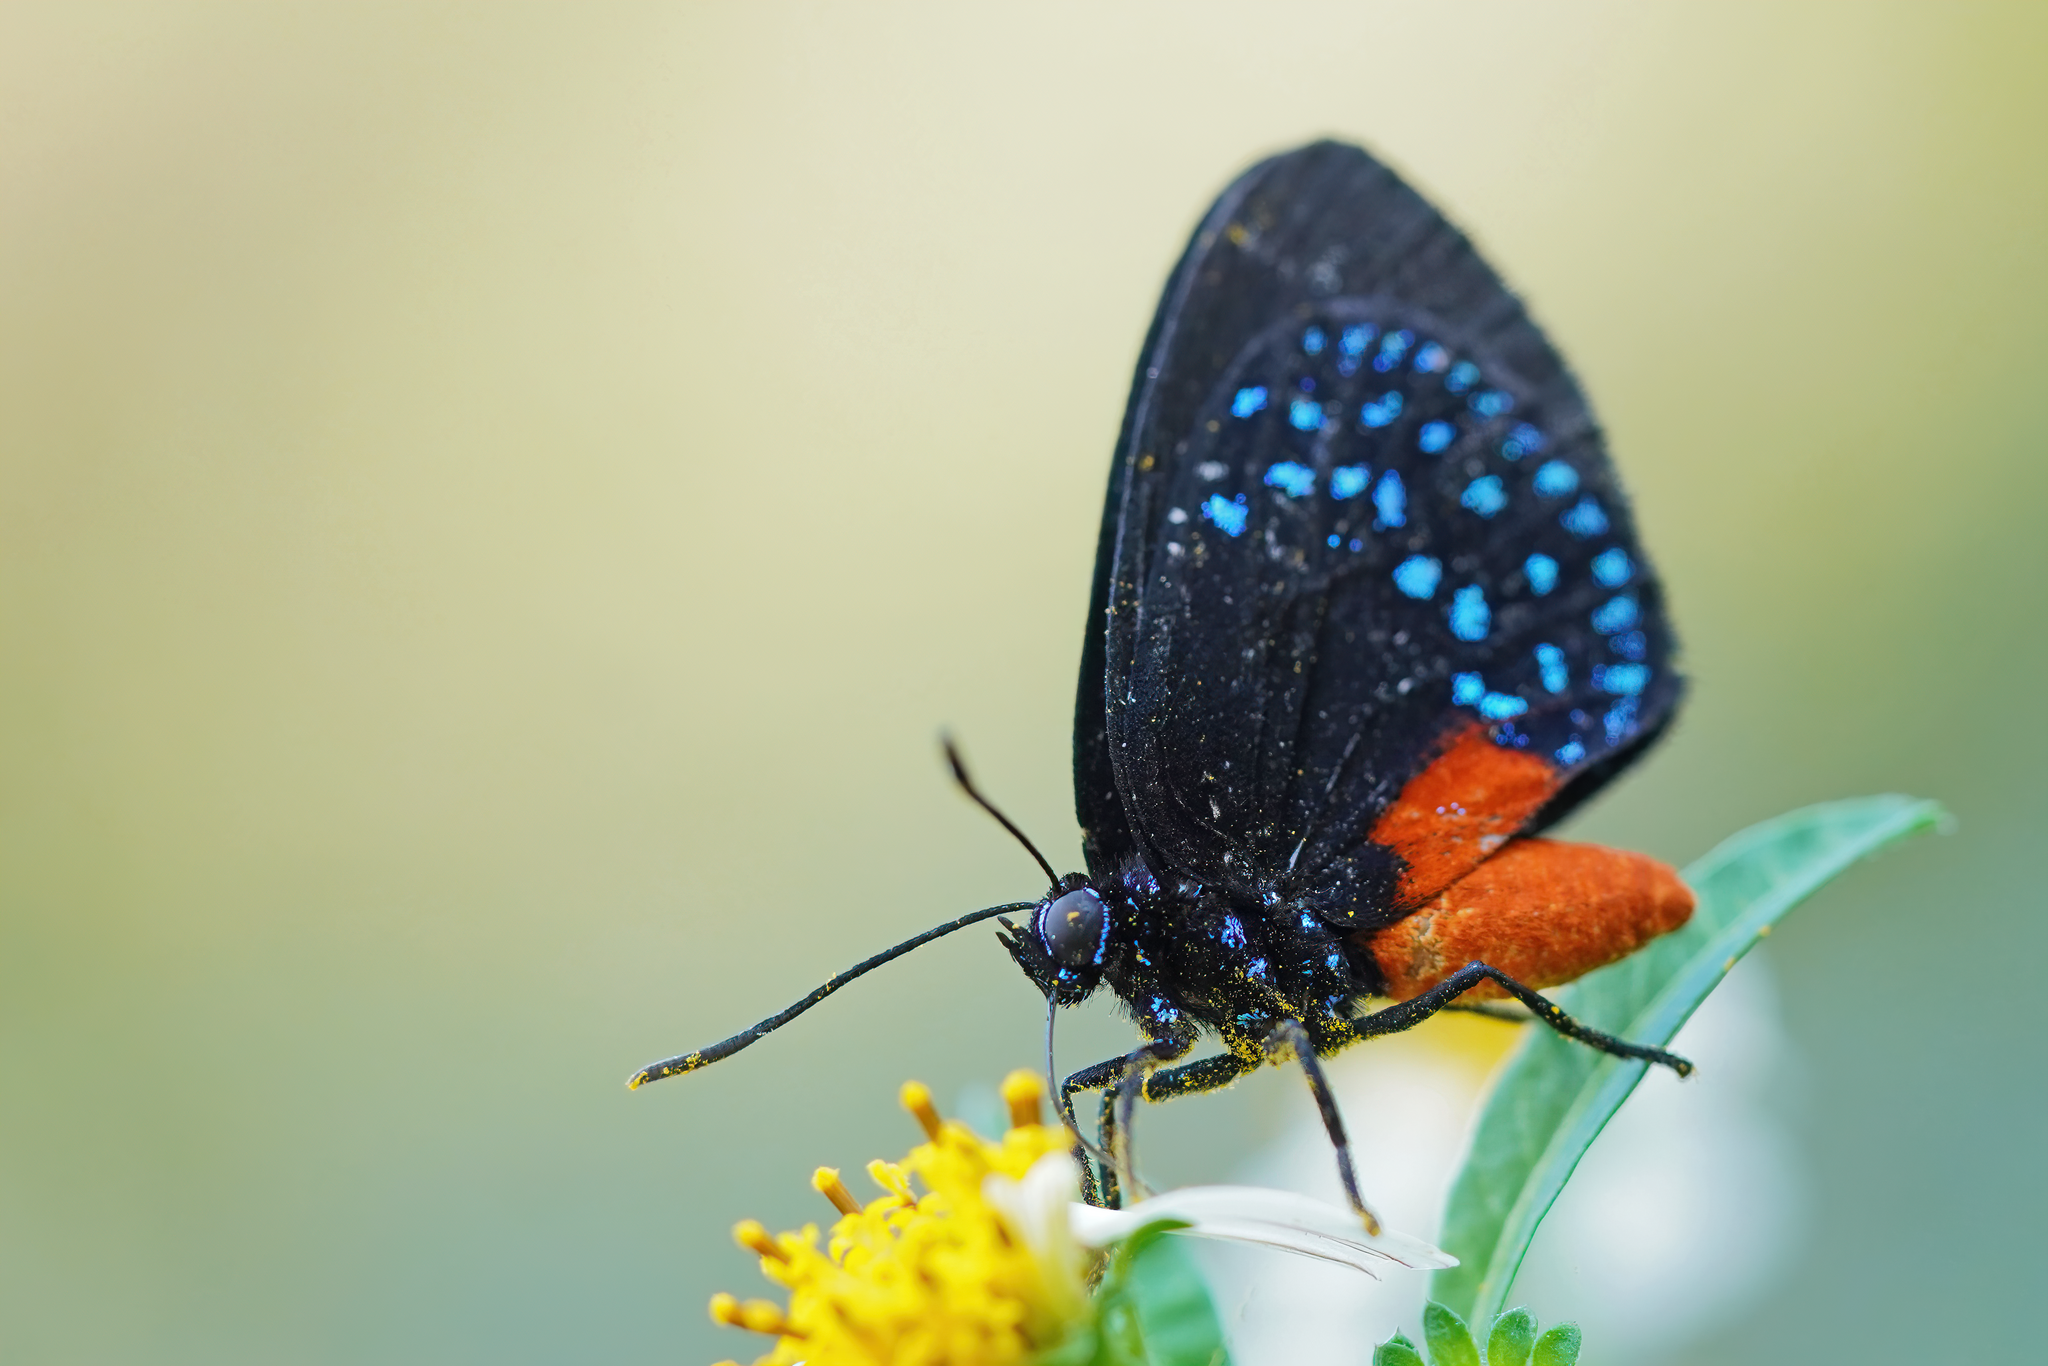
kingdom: Animalia
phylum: Arthropoda
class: Insecta
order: Lepidoptera
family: Lycaenidae
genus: Eumaeus
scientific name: Eumaeus atala
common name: Atala
